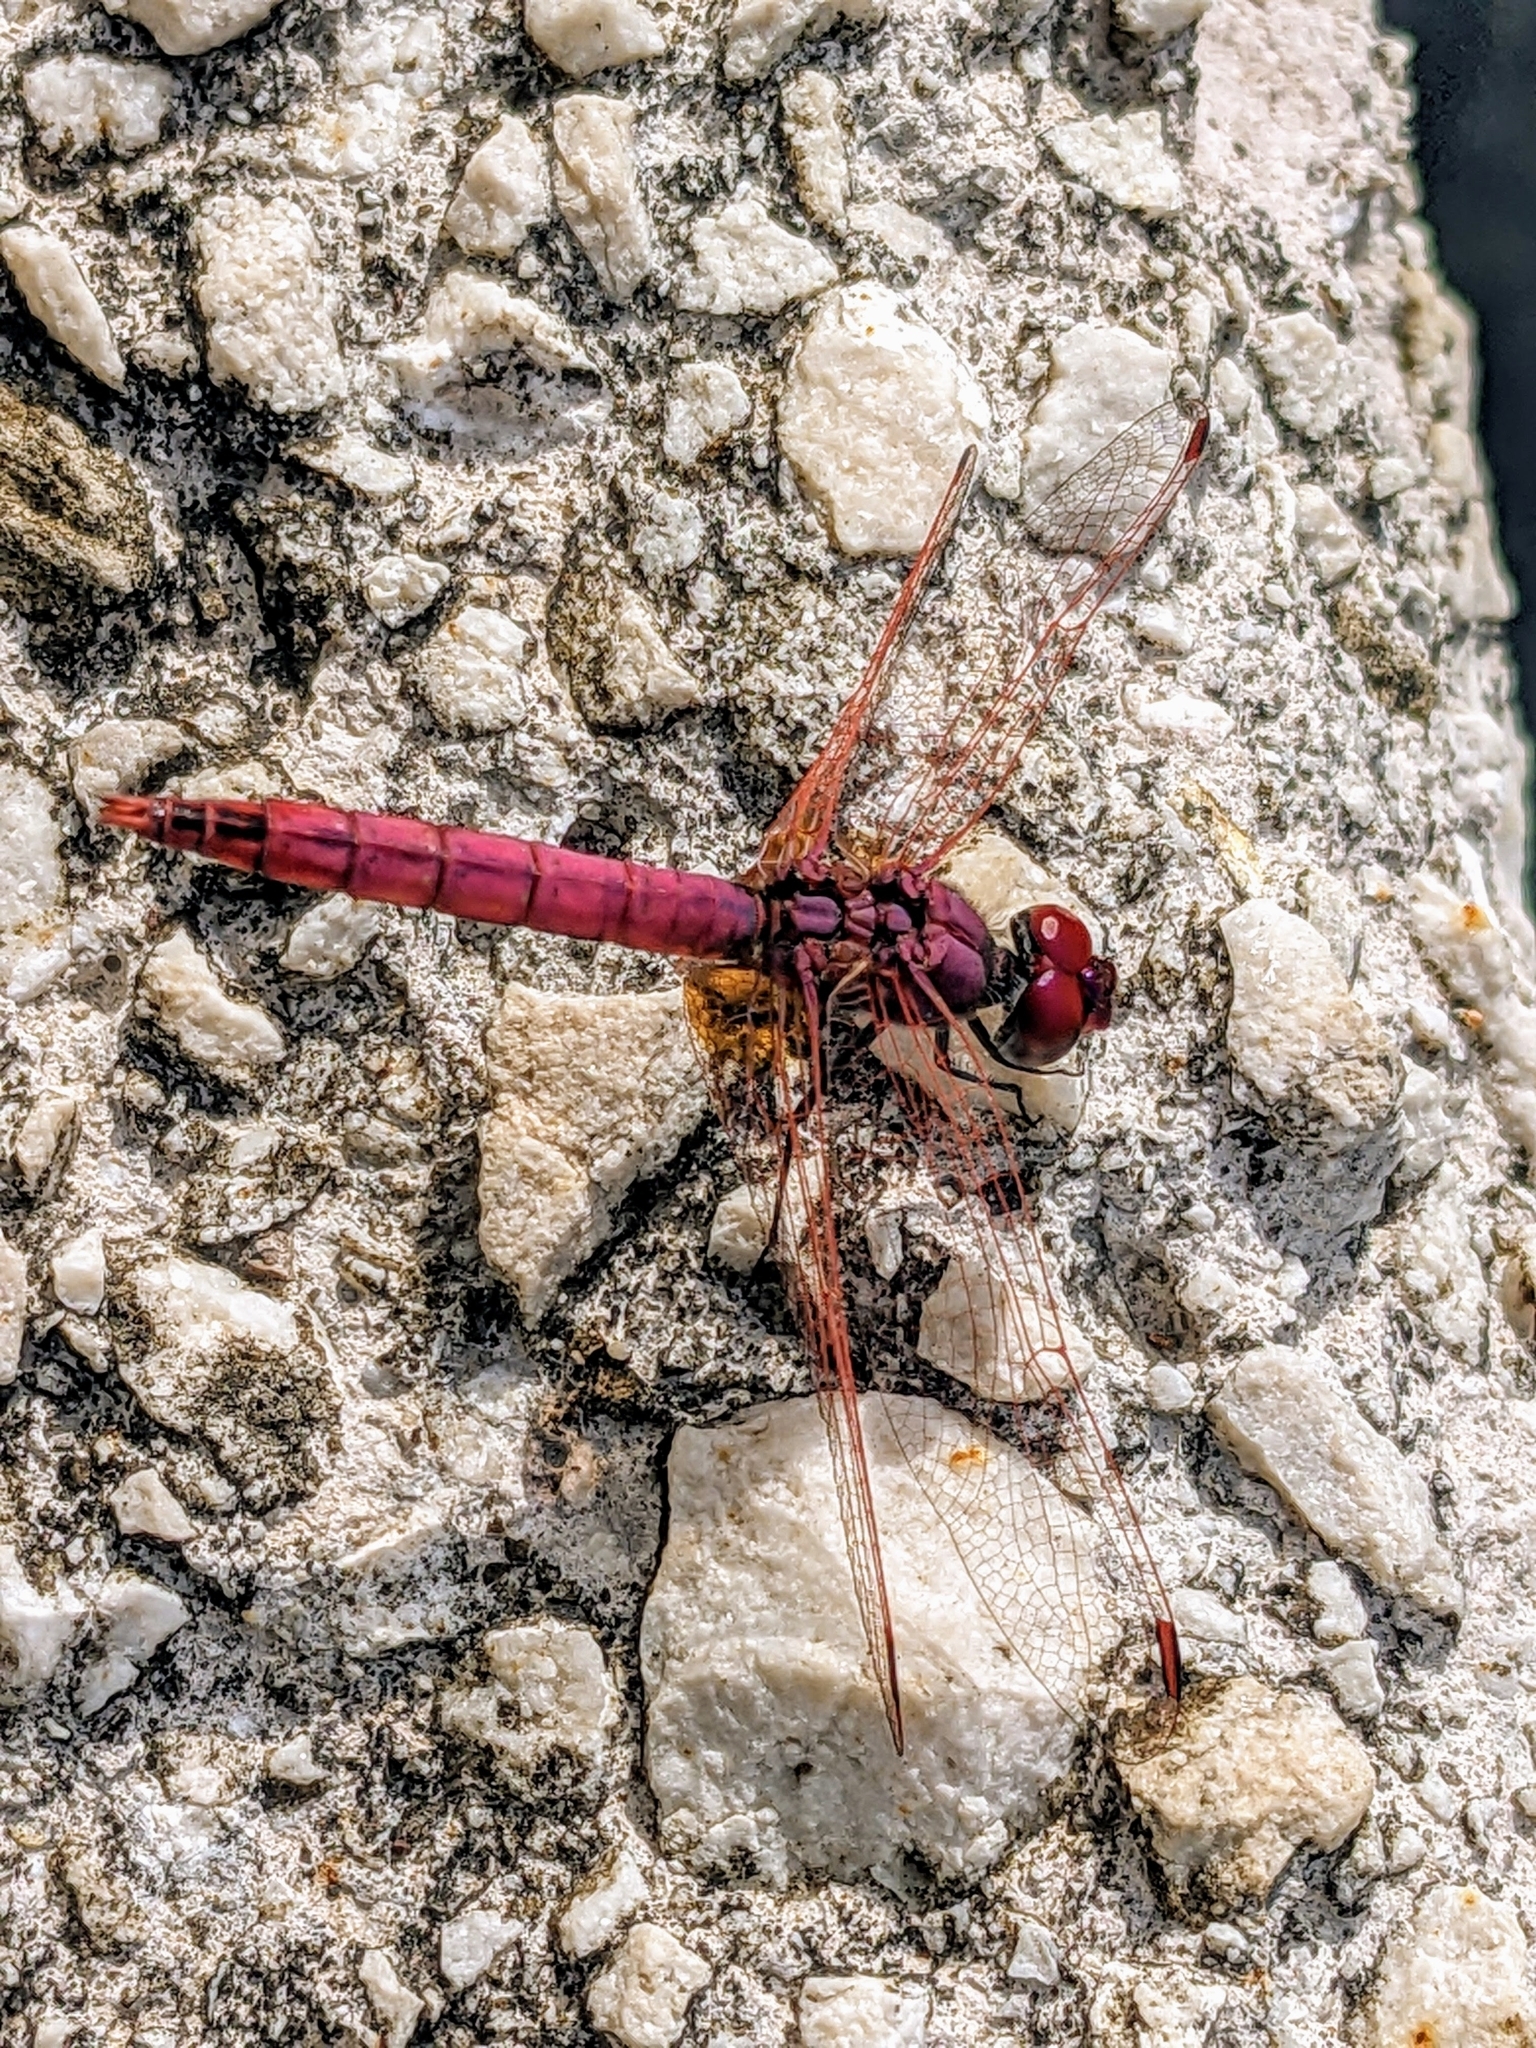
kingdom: Animalia
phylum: Arthropoda
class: Insecta
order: Odonata
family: Libellulidae
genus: Trithemis
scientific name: Trithemis annulata
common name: Violet dropwing
